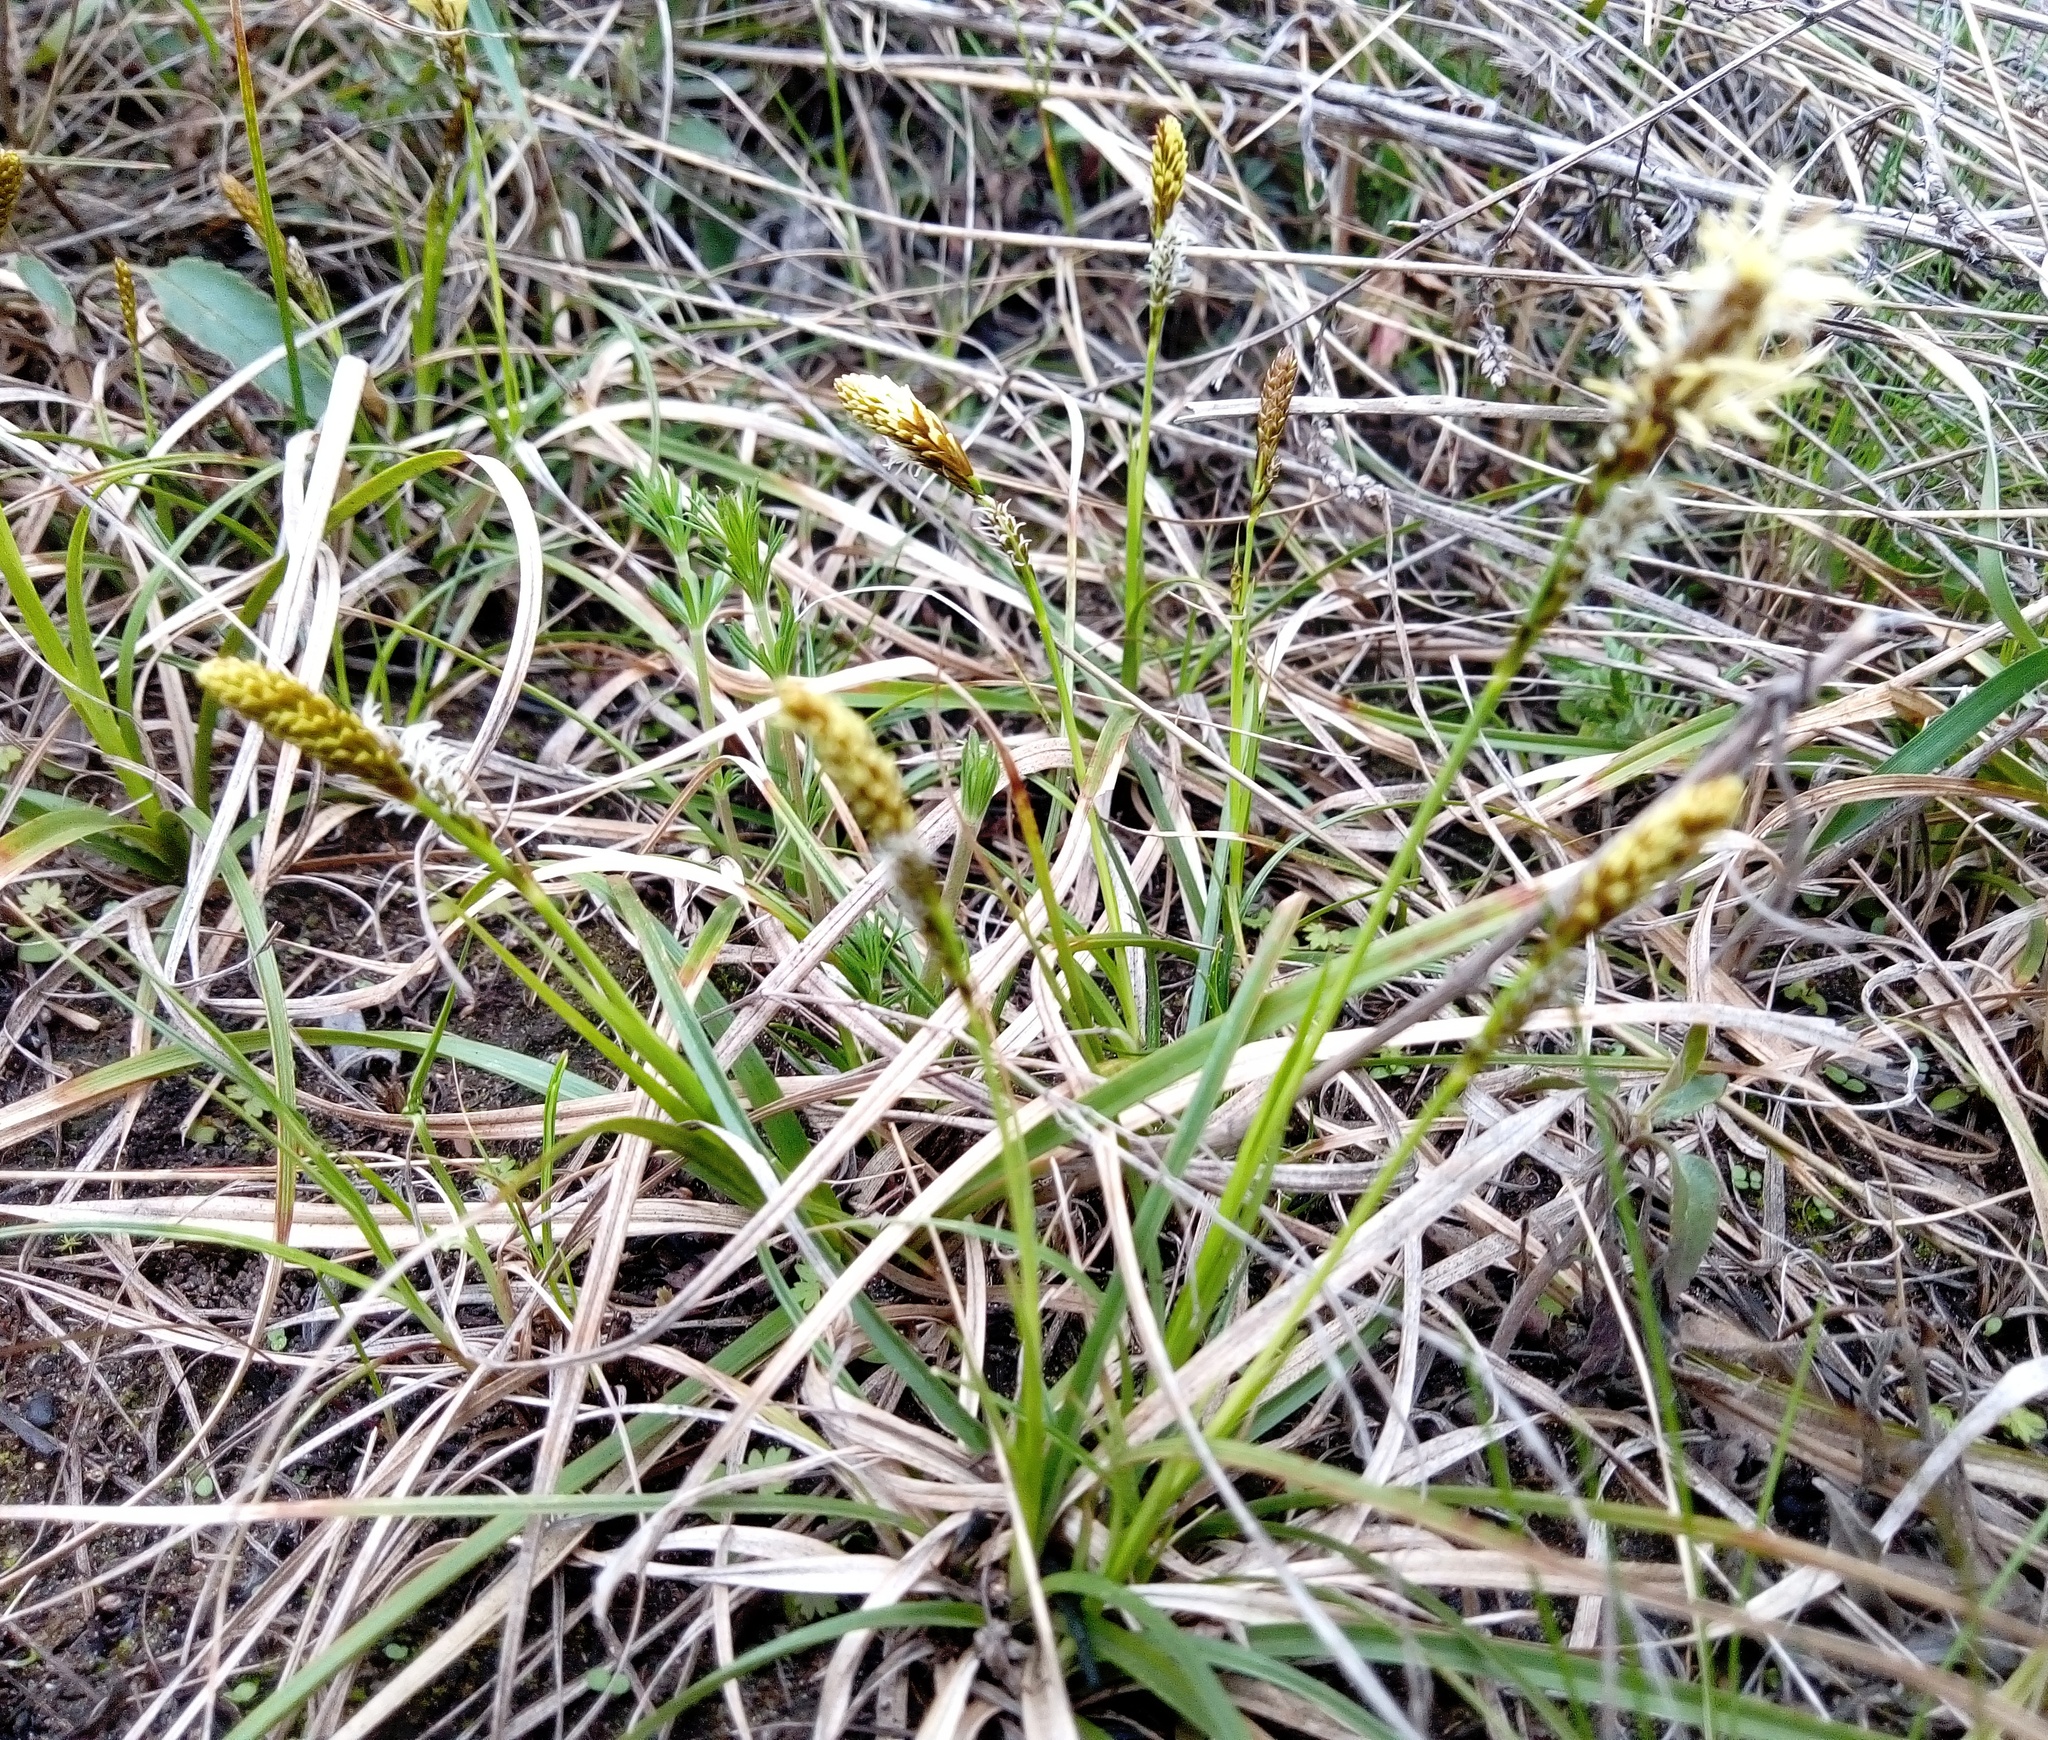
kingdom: Plantae
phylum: Tracheophyta
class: Liliopsida
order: Poales
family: Cyperaceae
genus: Carex
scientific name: Carex caryophyllea
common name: Spring sedge
